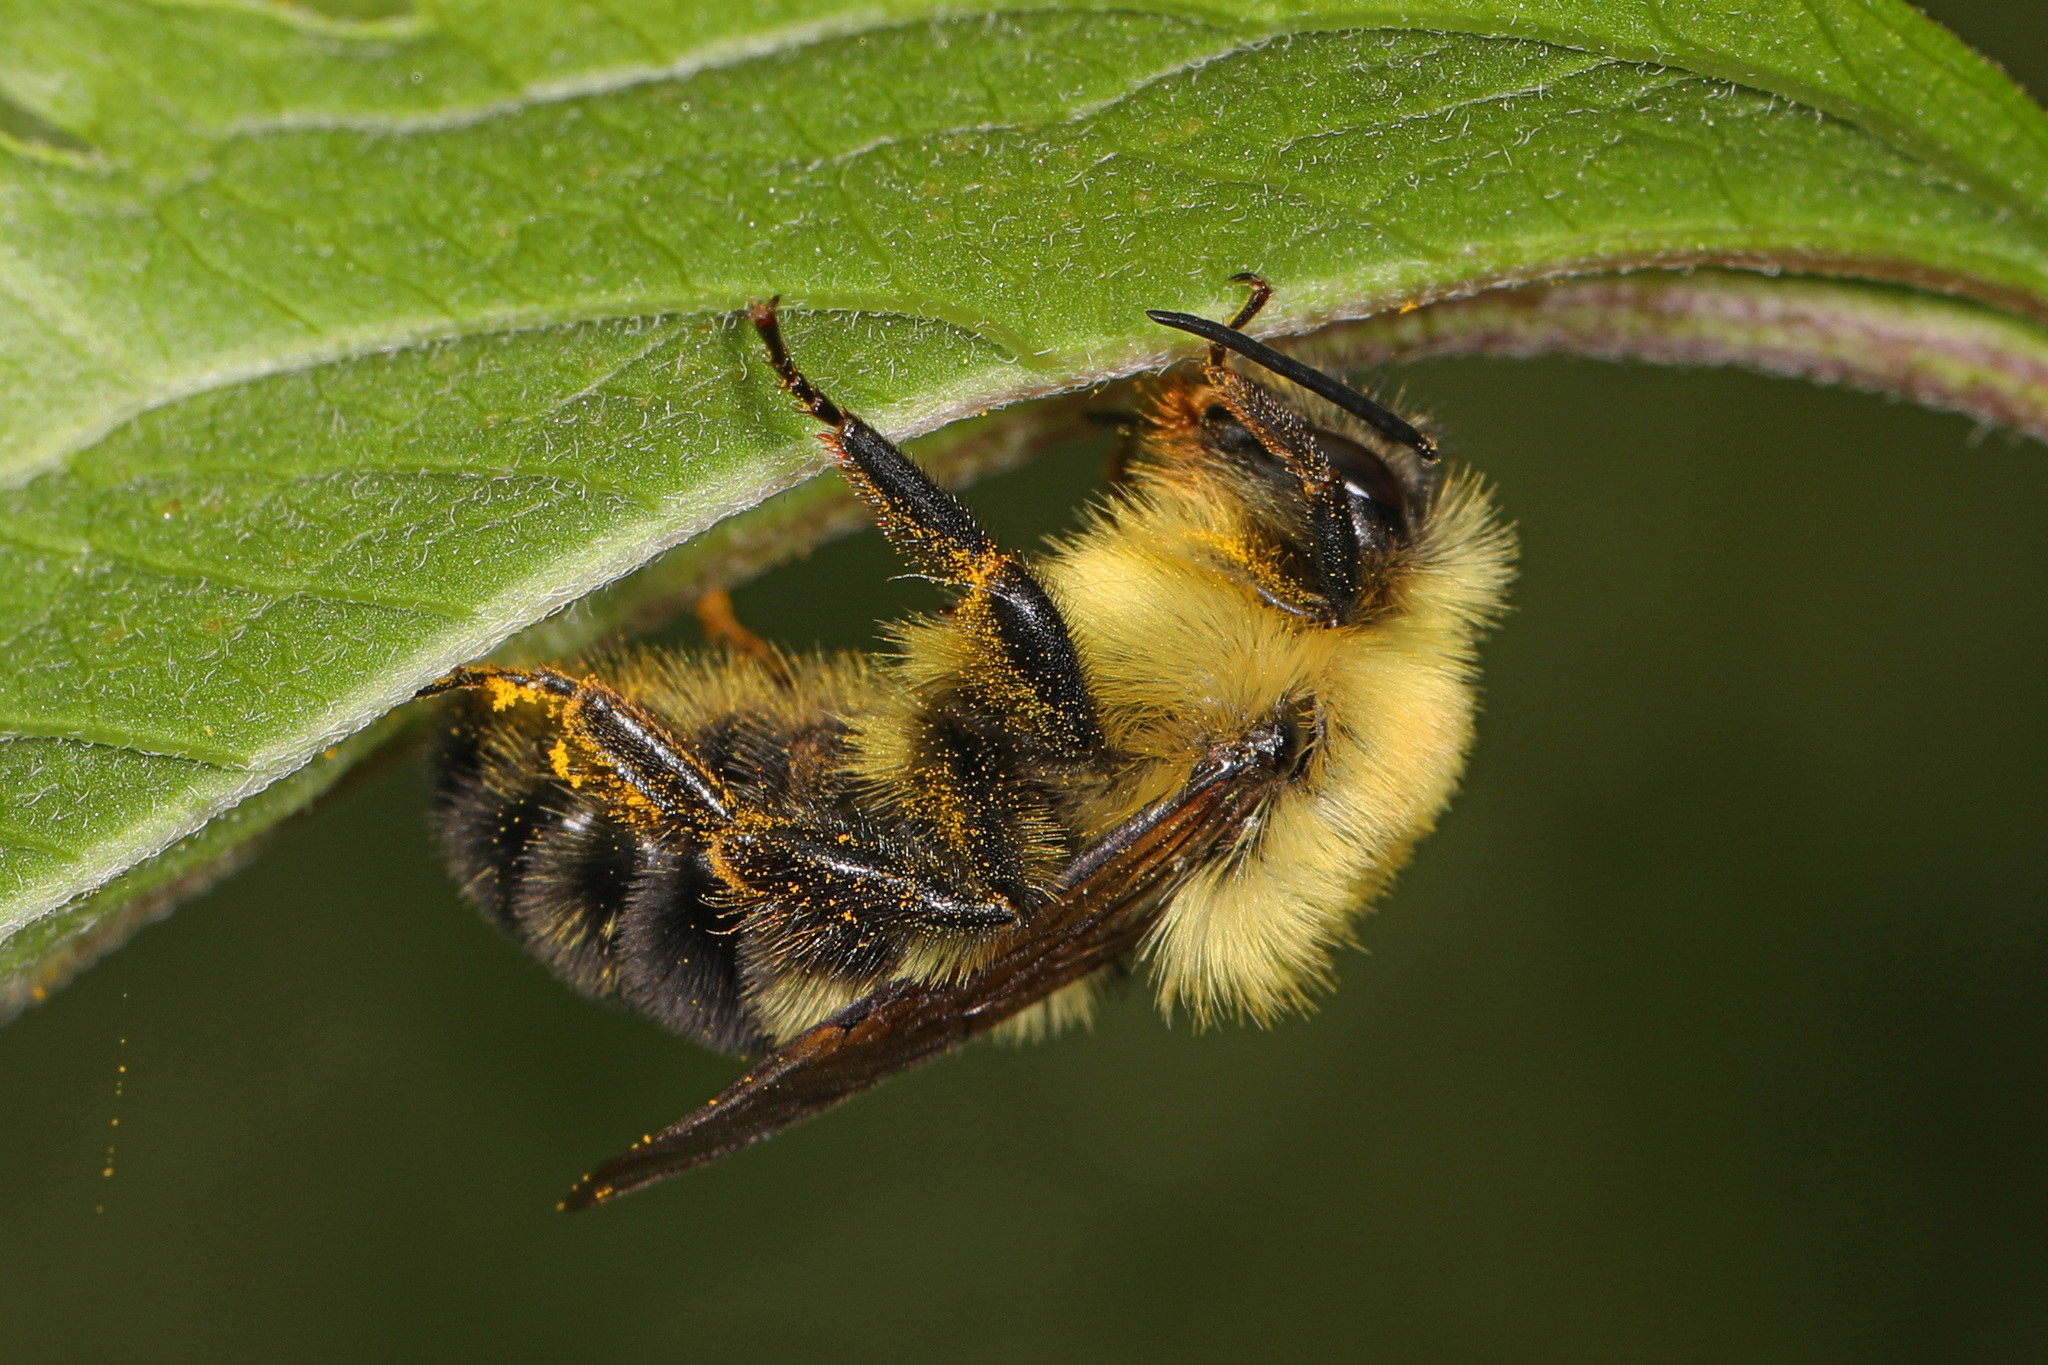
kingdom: Animalia
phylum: Arthropoda
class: Insecta
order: Hymenoptera
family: Apidae
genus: Bombus
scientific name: Bombus bimaculatus
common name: Two-spotted bumble bee
